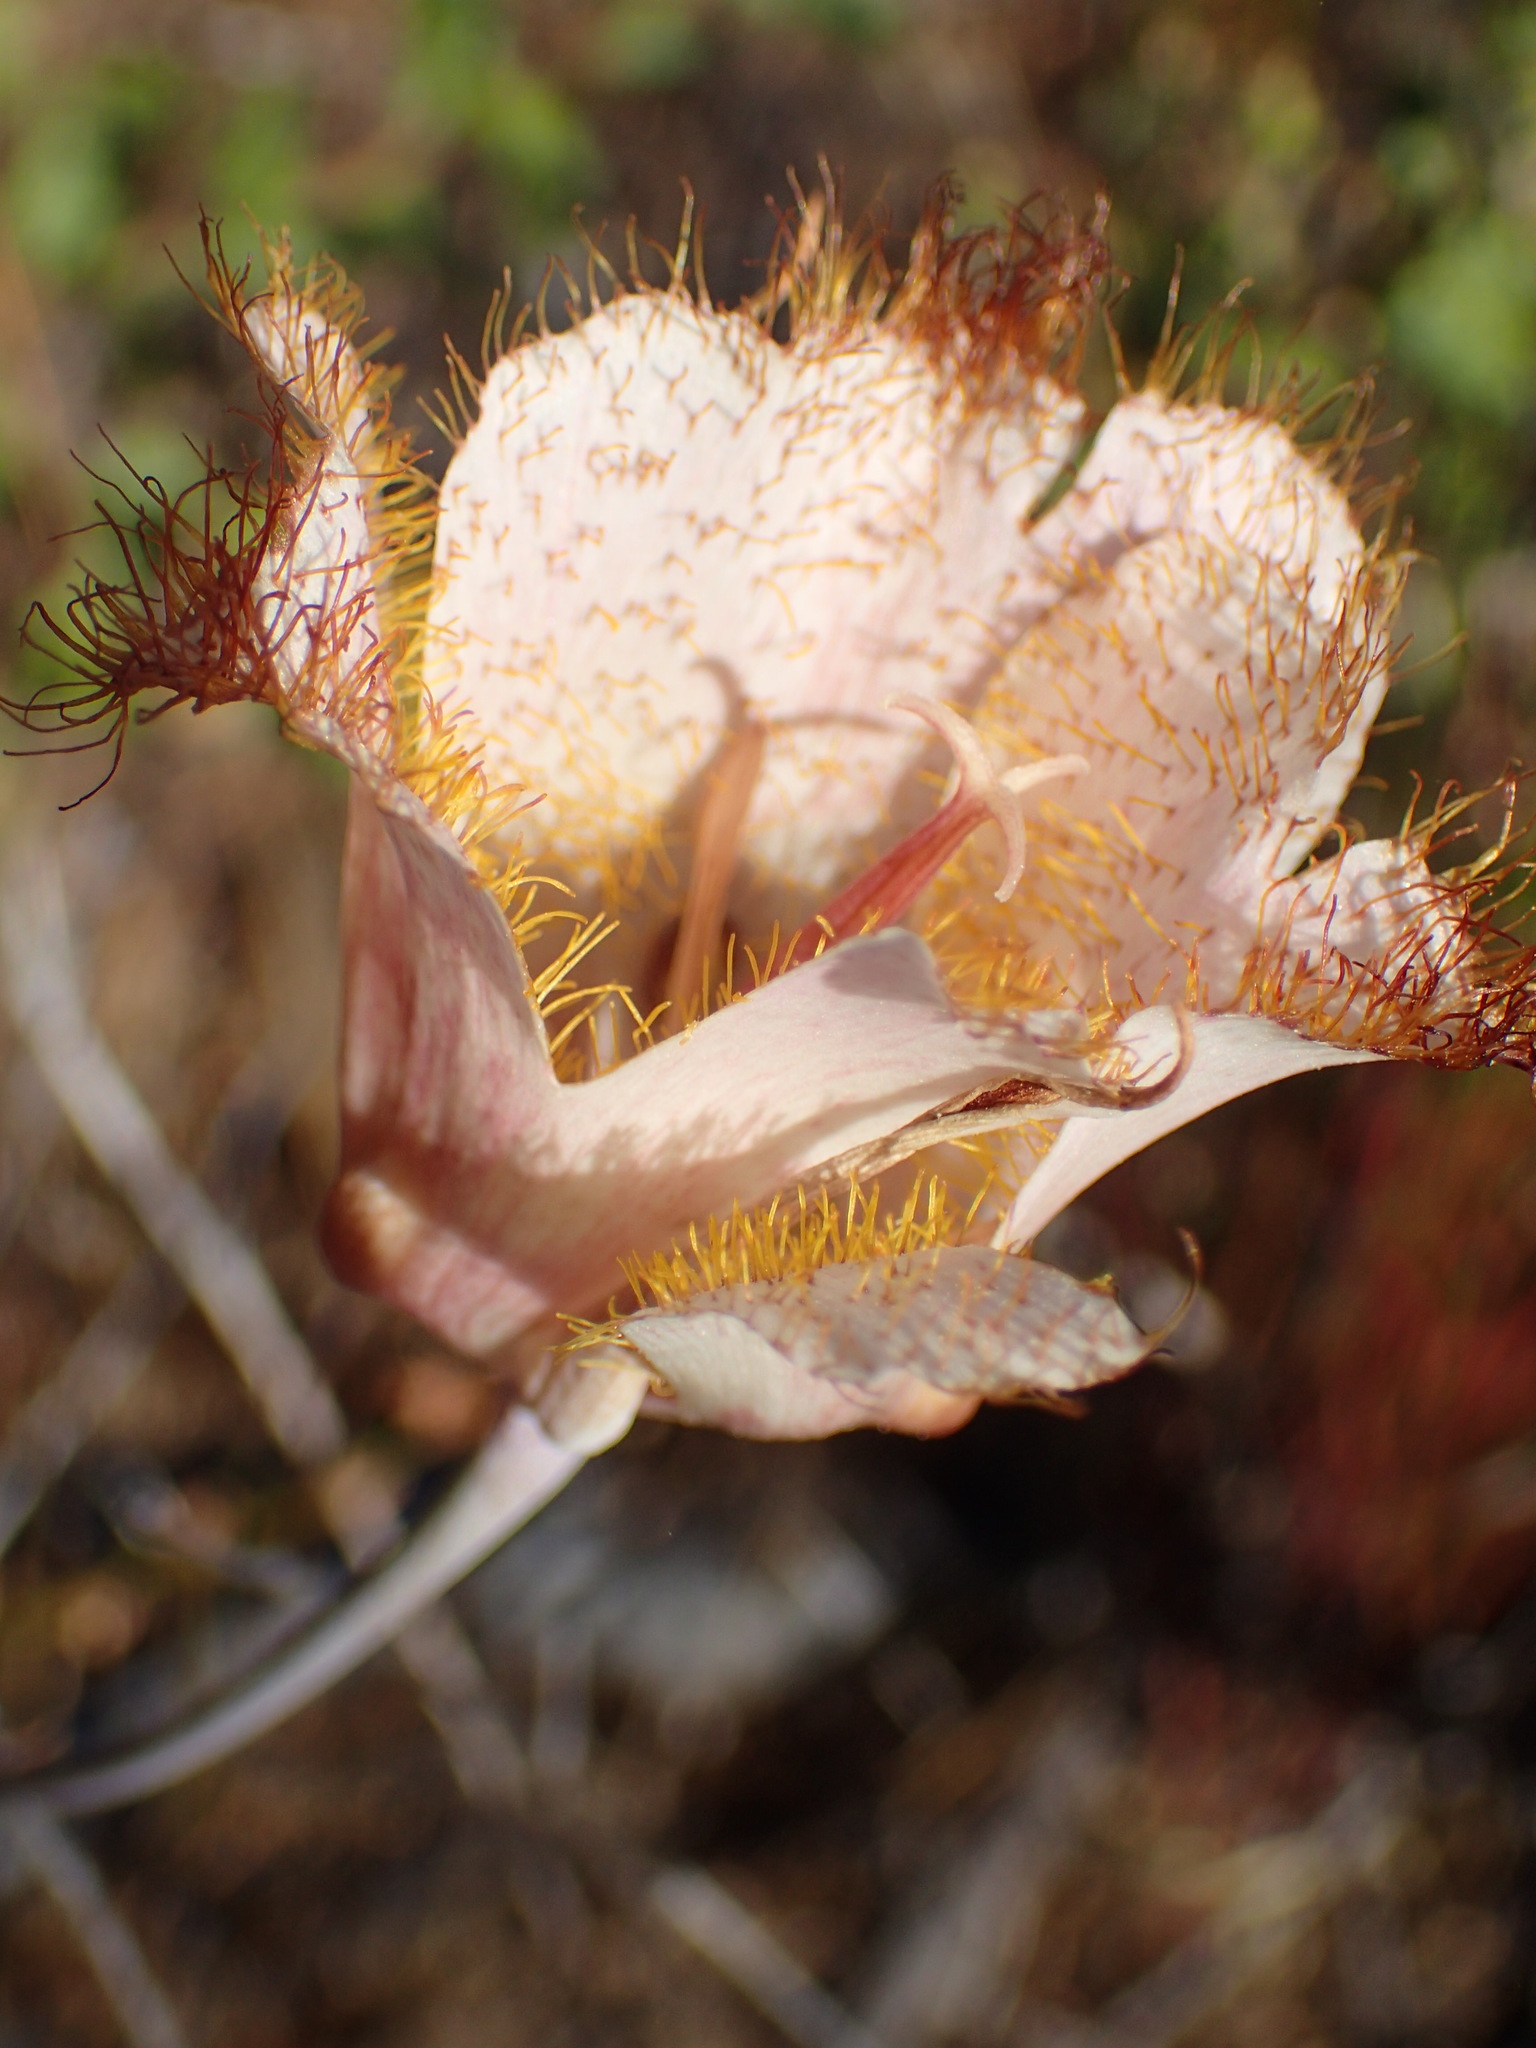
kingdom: Plantae
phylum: Tracheophyta
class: Liliopsida
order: Liliales
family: Liliaceae
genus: Calochortus
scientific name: Calochortus fimbriatus
